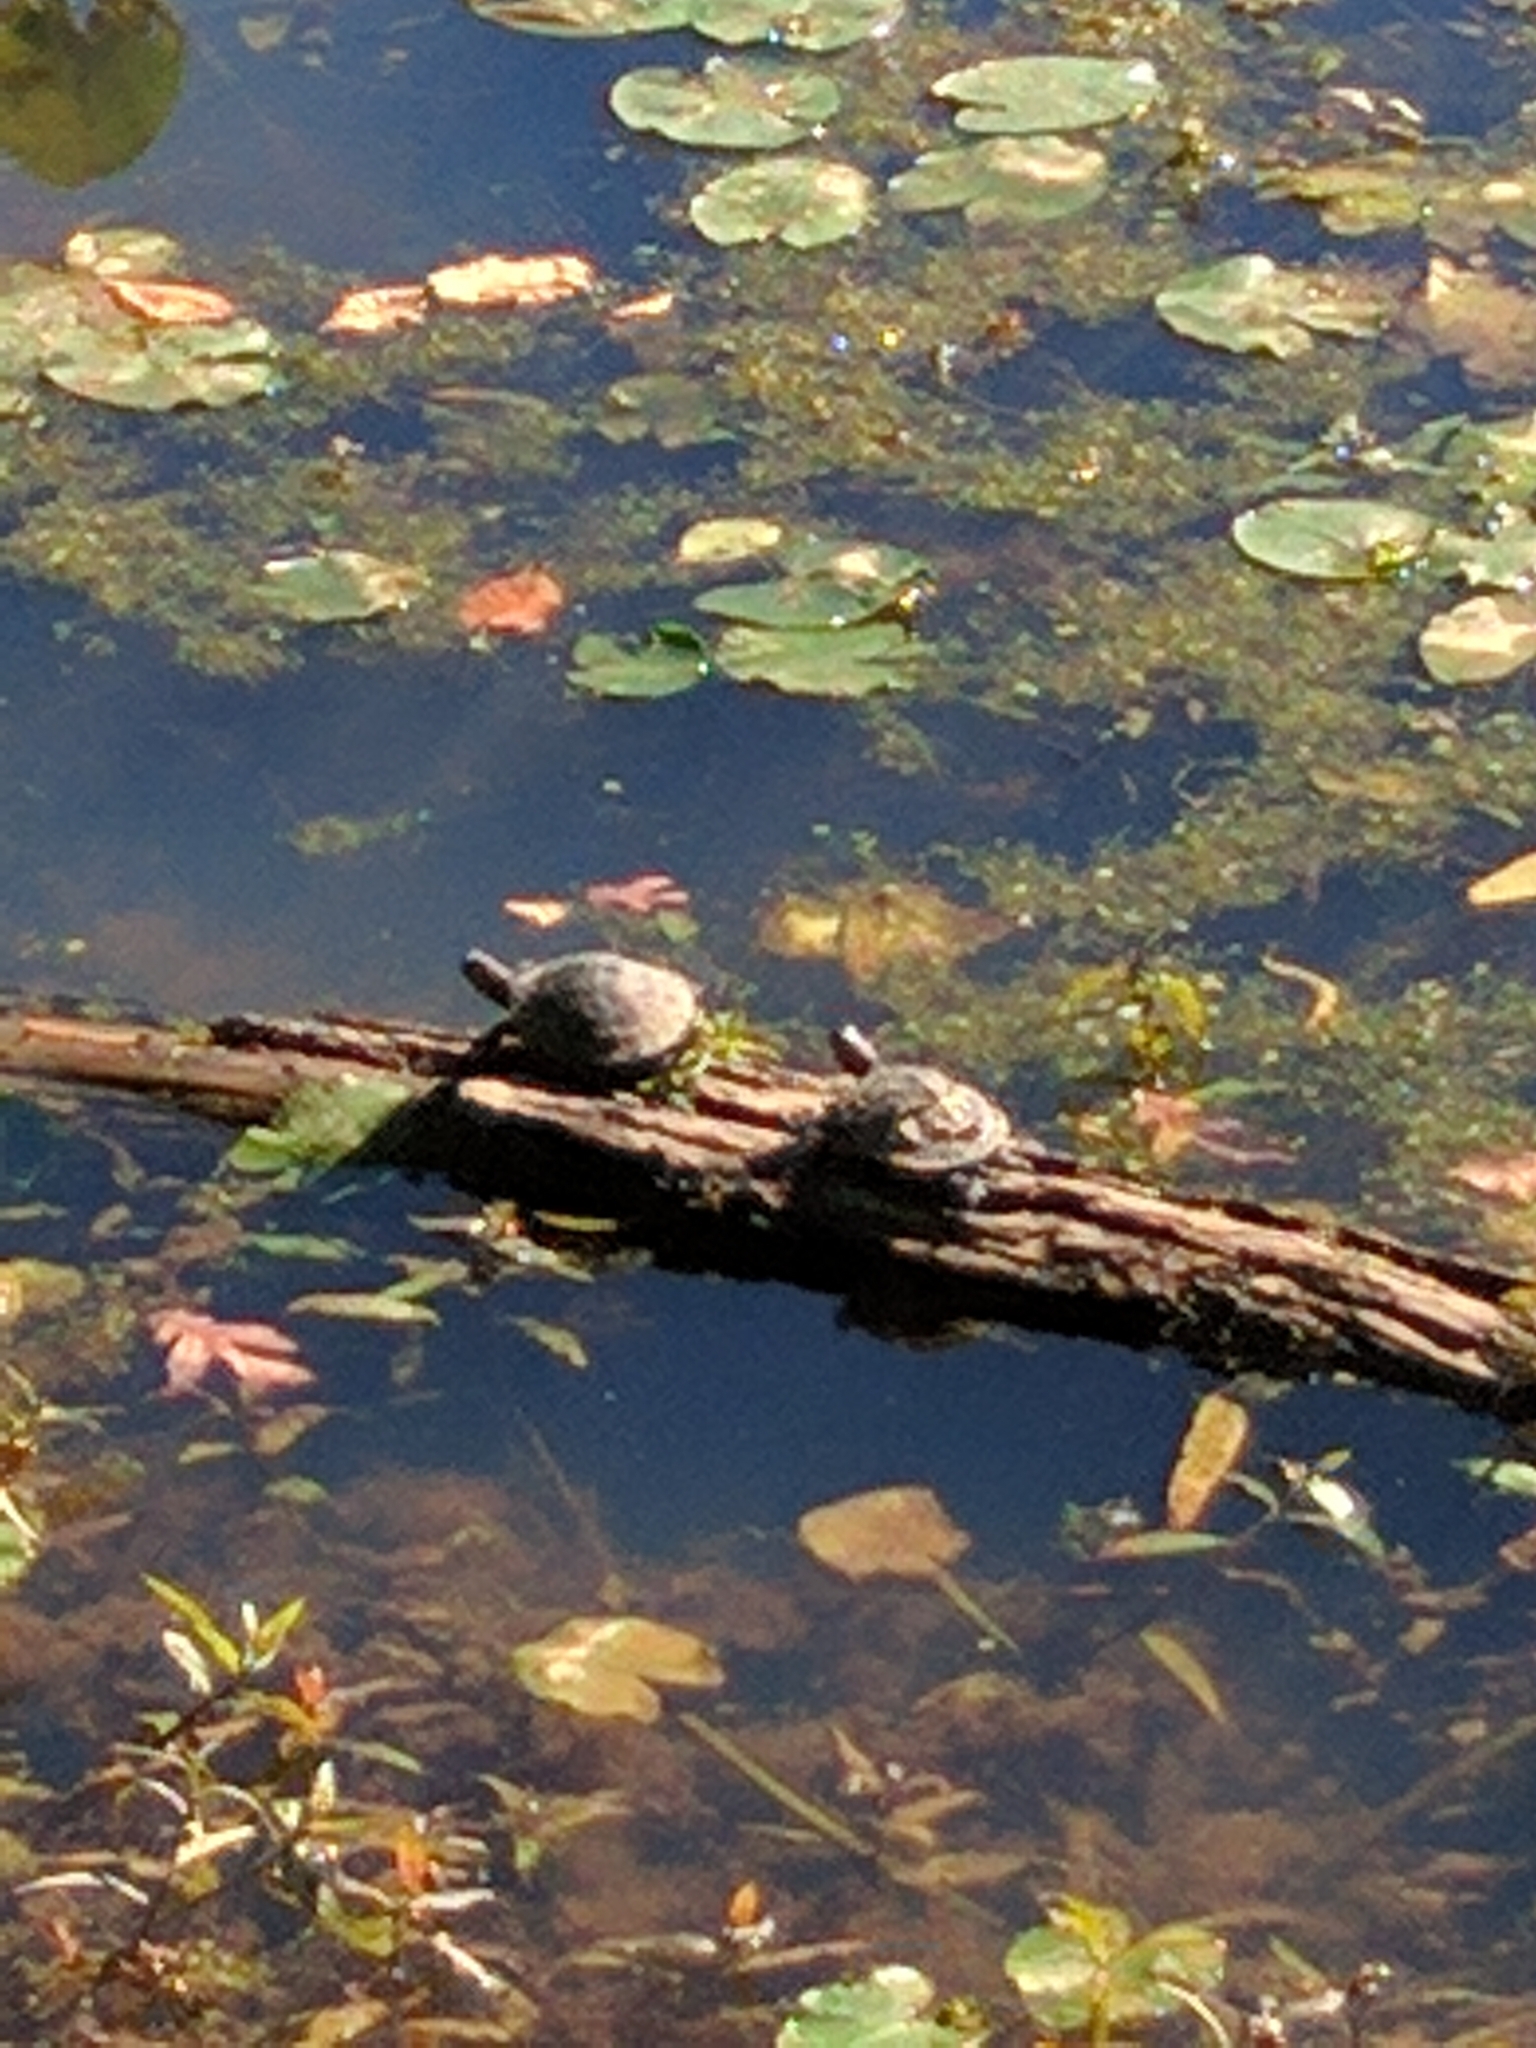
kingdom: Animalia
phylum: Chordata
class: Testudines
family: Emydidae
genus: Trachemys
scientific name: Trachemys scripta
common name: Slider
